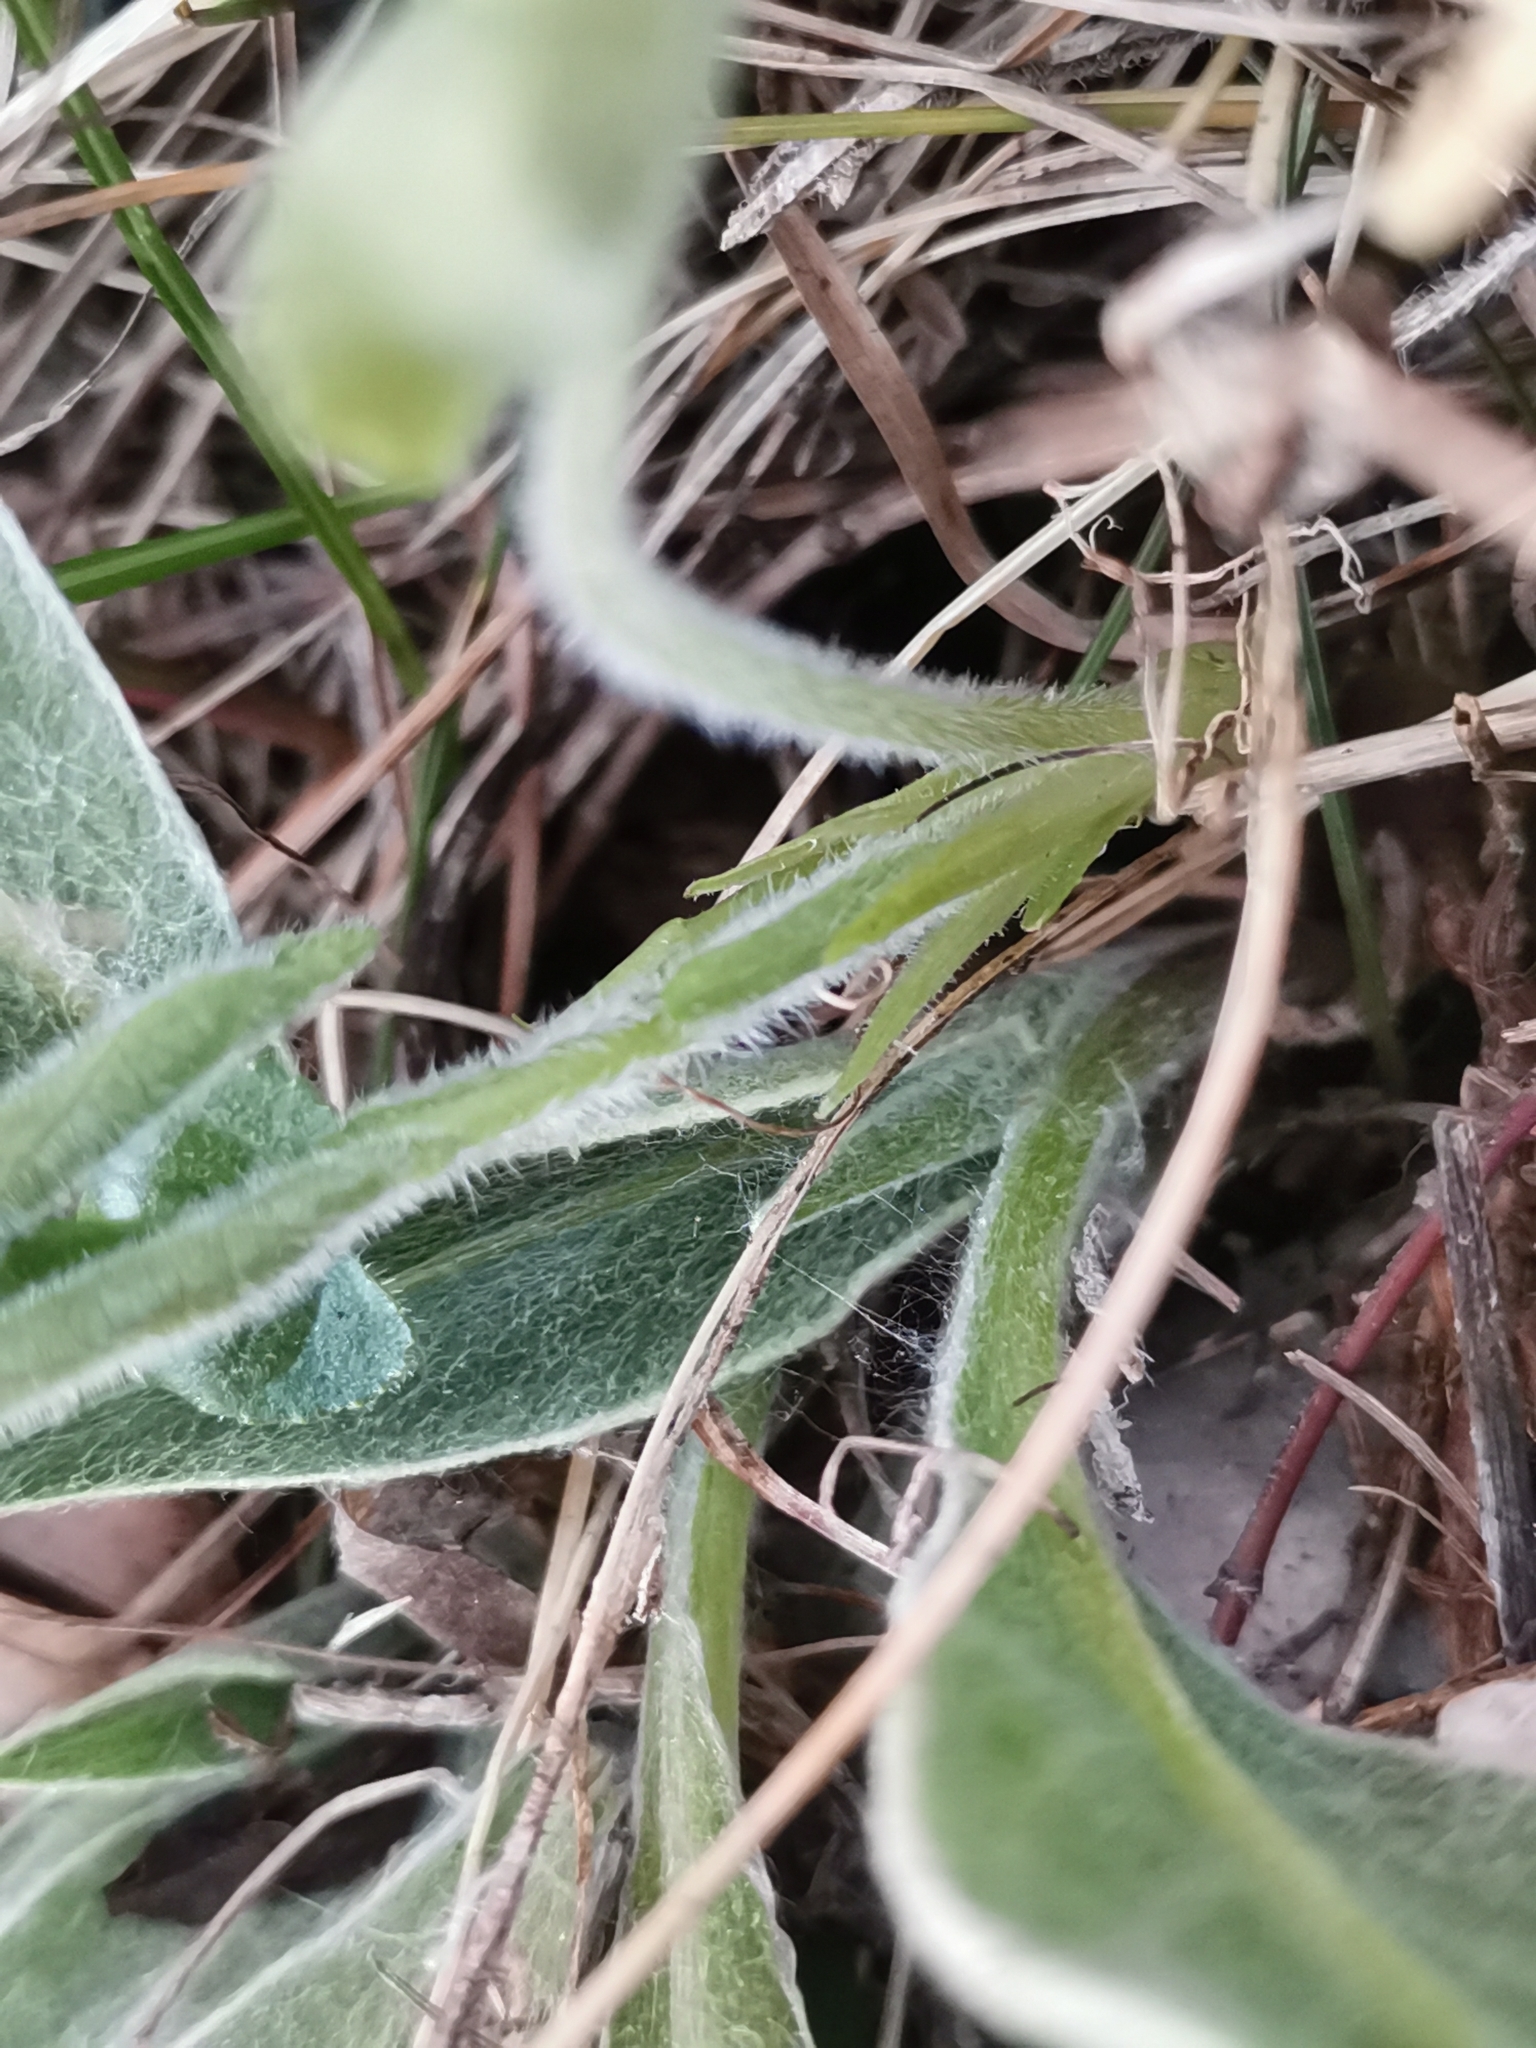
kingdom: Plantae
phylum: Tracheophyta
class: Magnoliopsida
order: Malpighiales
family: Violaceae
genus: Viola
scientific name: Viola hirta
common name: Hairy violet
